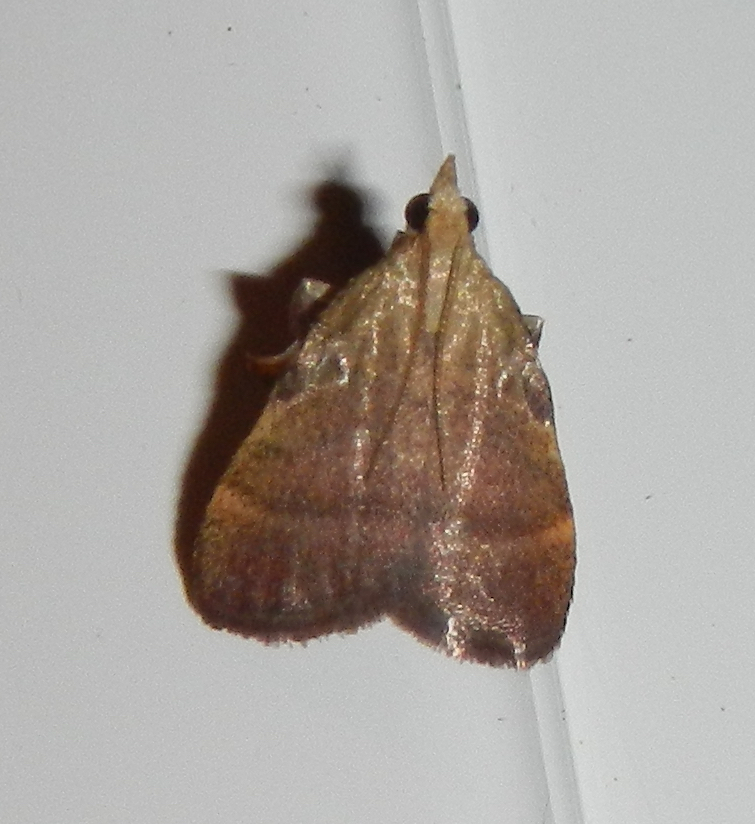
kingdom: Animalia
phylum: Arthropoda
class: Insecta
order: Lepidoptera
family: Pyralidae
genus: Condylolomia
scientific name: Condylolomia participialis
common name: Drab condylolomia moth
